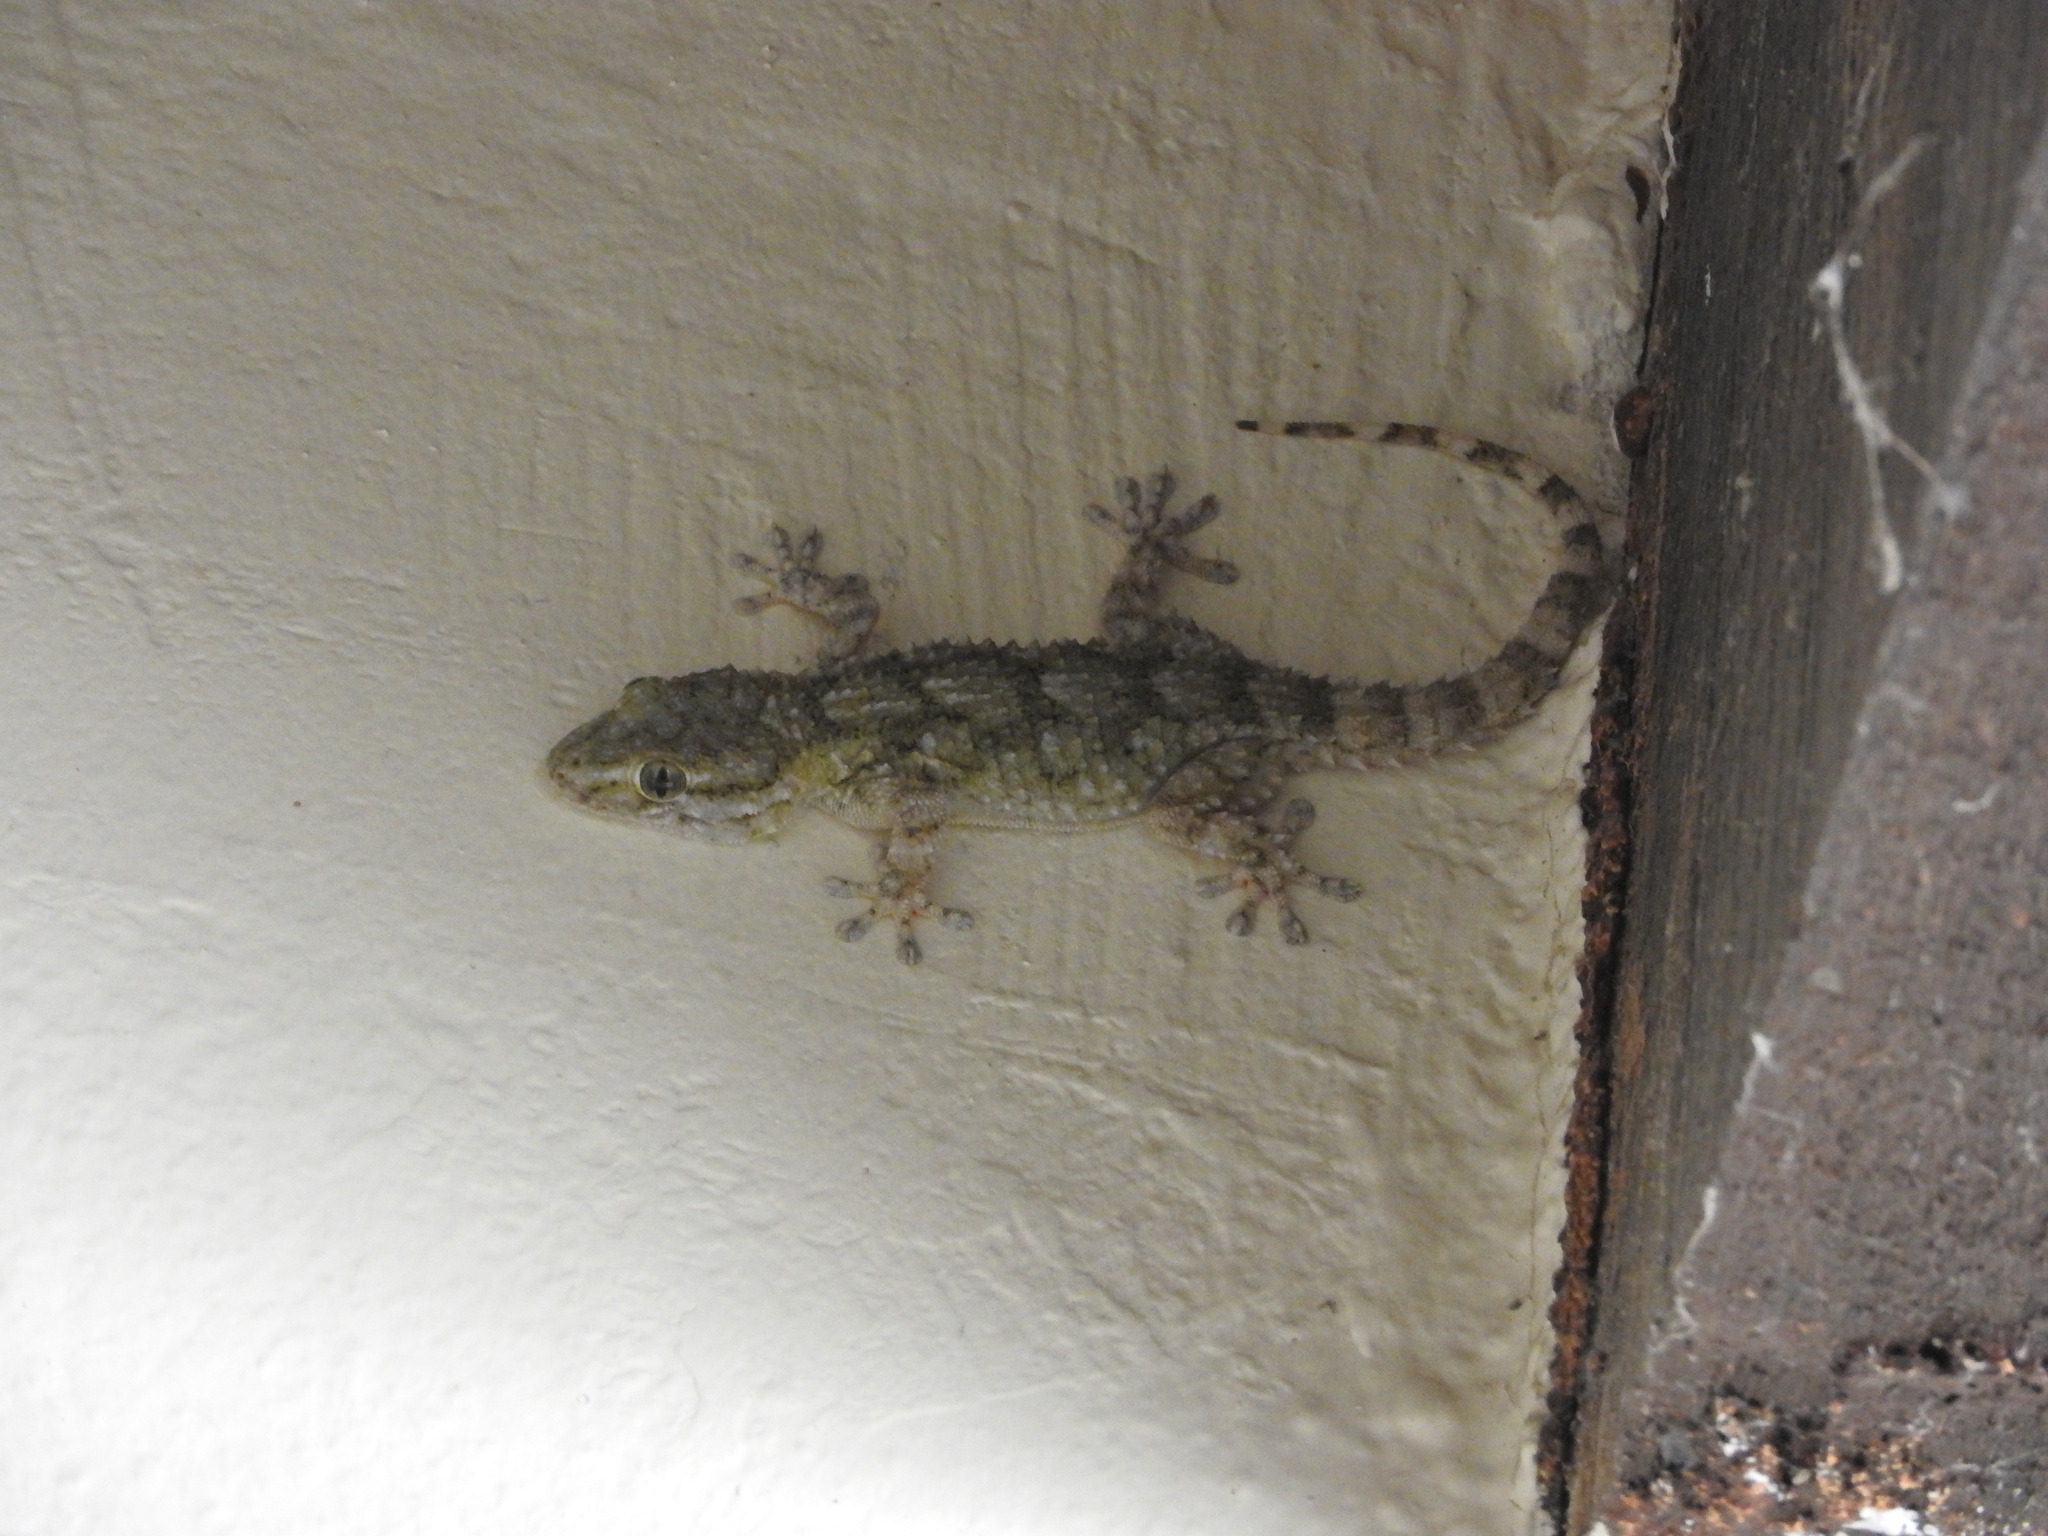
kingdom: Animalia
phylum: Chordata
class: Squamata
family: Phyllodactylidae
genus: Tarentola
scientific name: Tarentola mauritanica
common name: Moorish gecko
